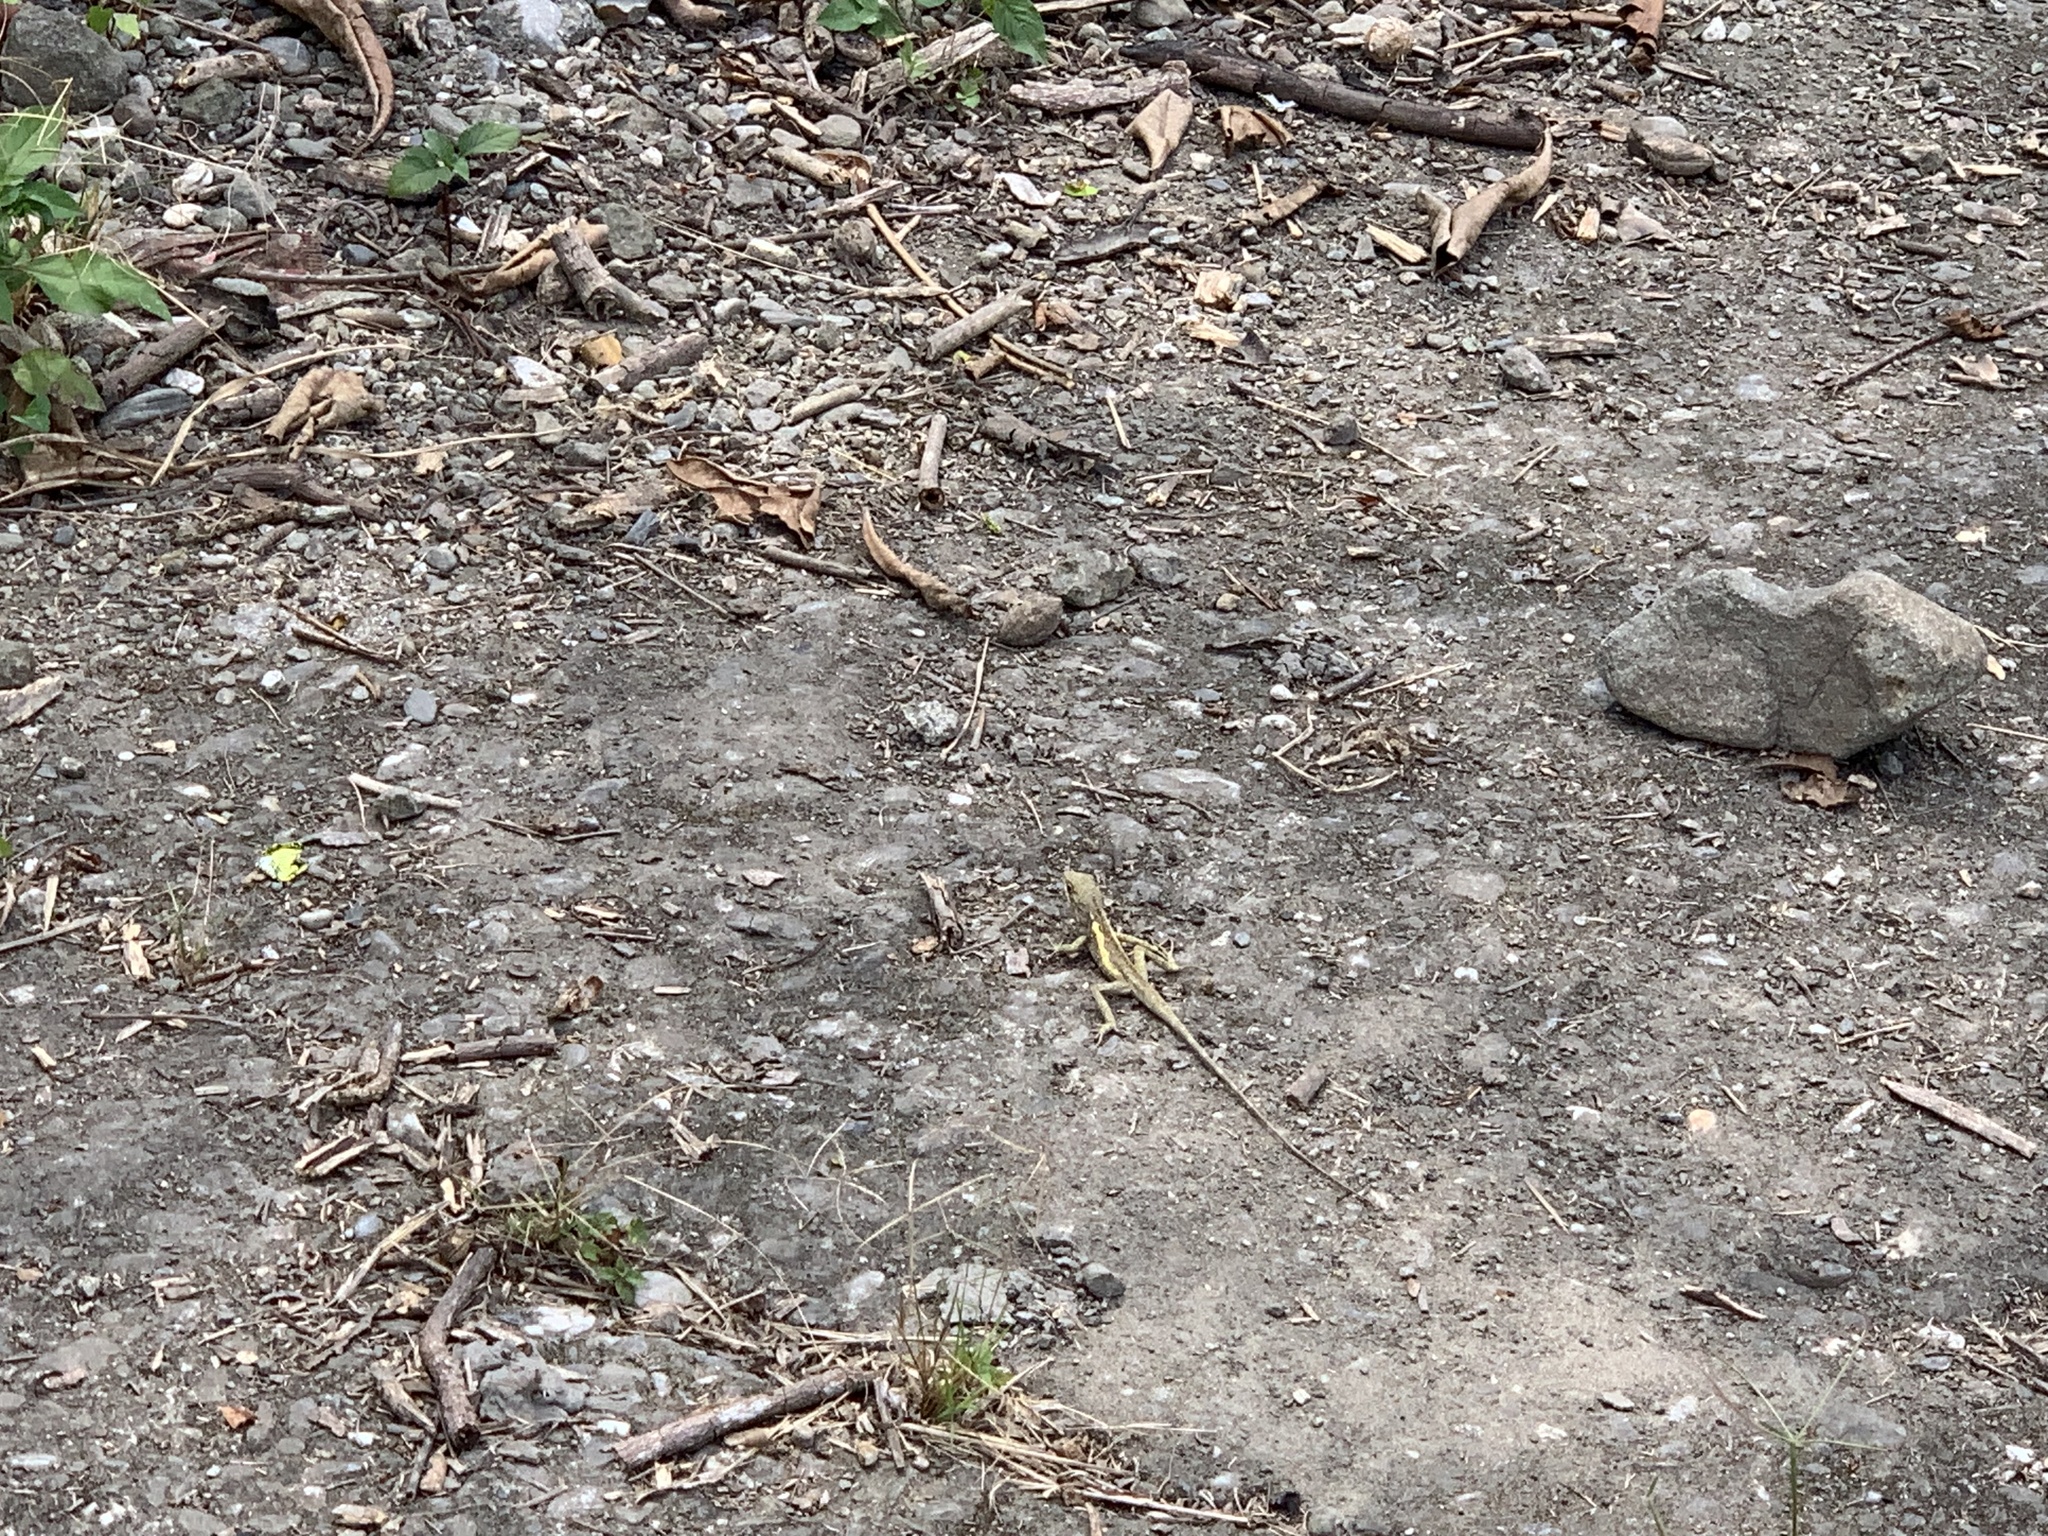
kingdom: Animalia
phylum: Chordata
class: Squamata
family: Agamidae
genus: Diploderma
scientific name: Diploderma swinhonis
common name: Taiwan japalure
